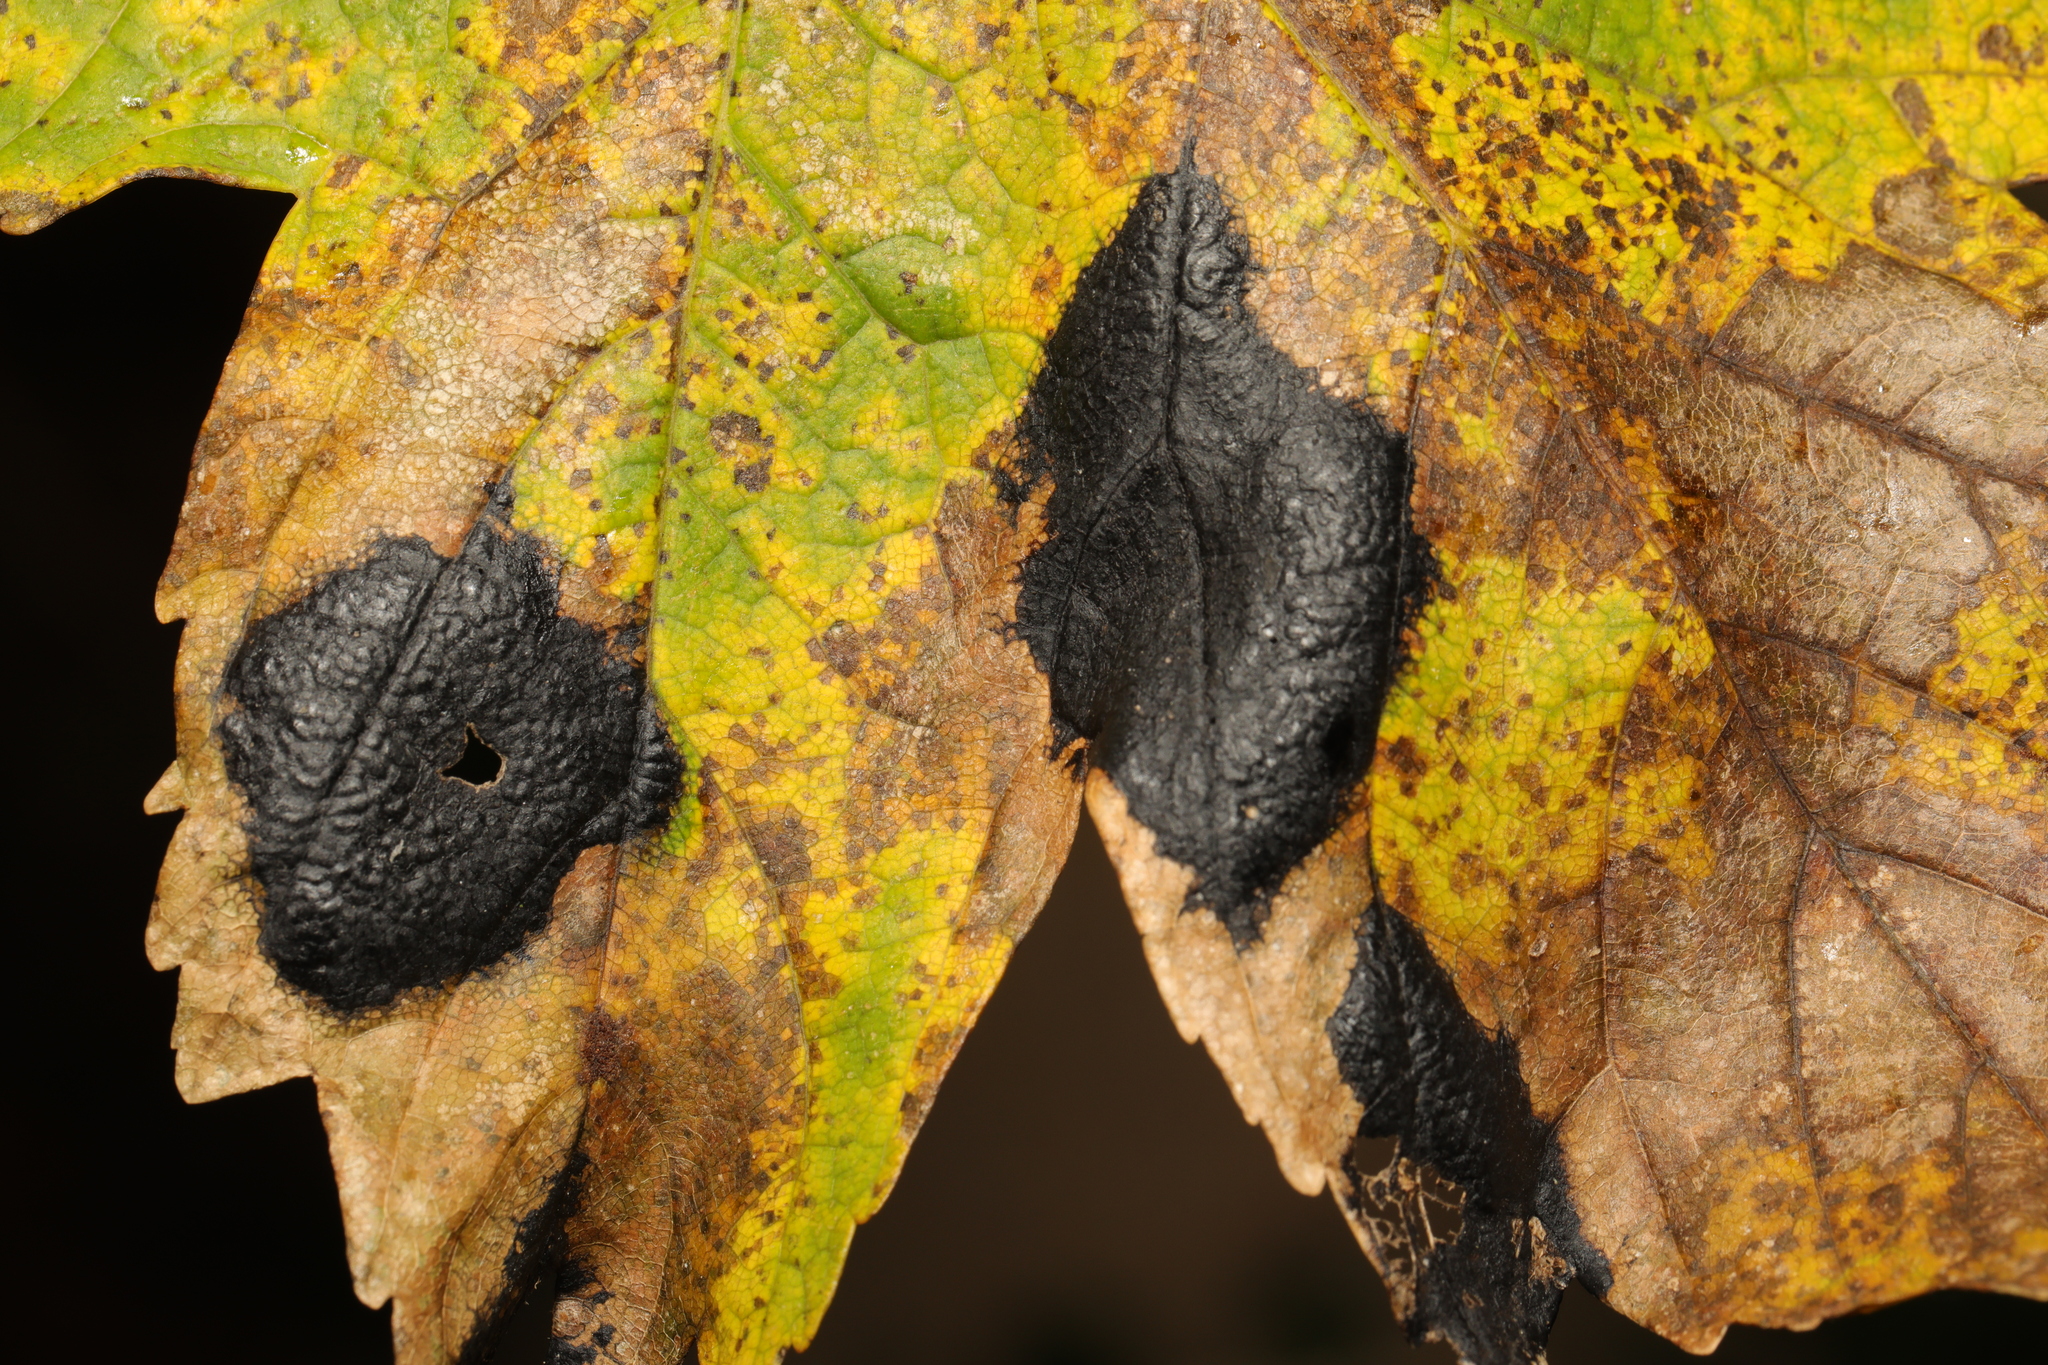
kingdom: Fungi
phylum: Ascomycota
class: Leotiomycetes
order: Rhytismatales
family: Rhytismataceae
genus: Rhytisma
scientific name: Rhytisma acerinum
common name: European tar spot
